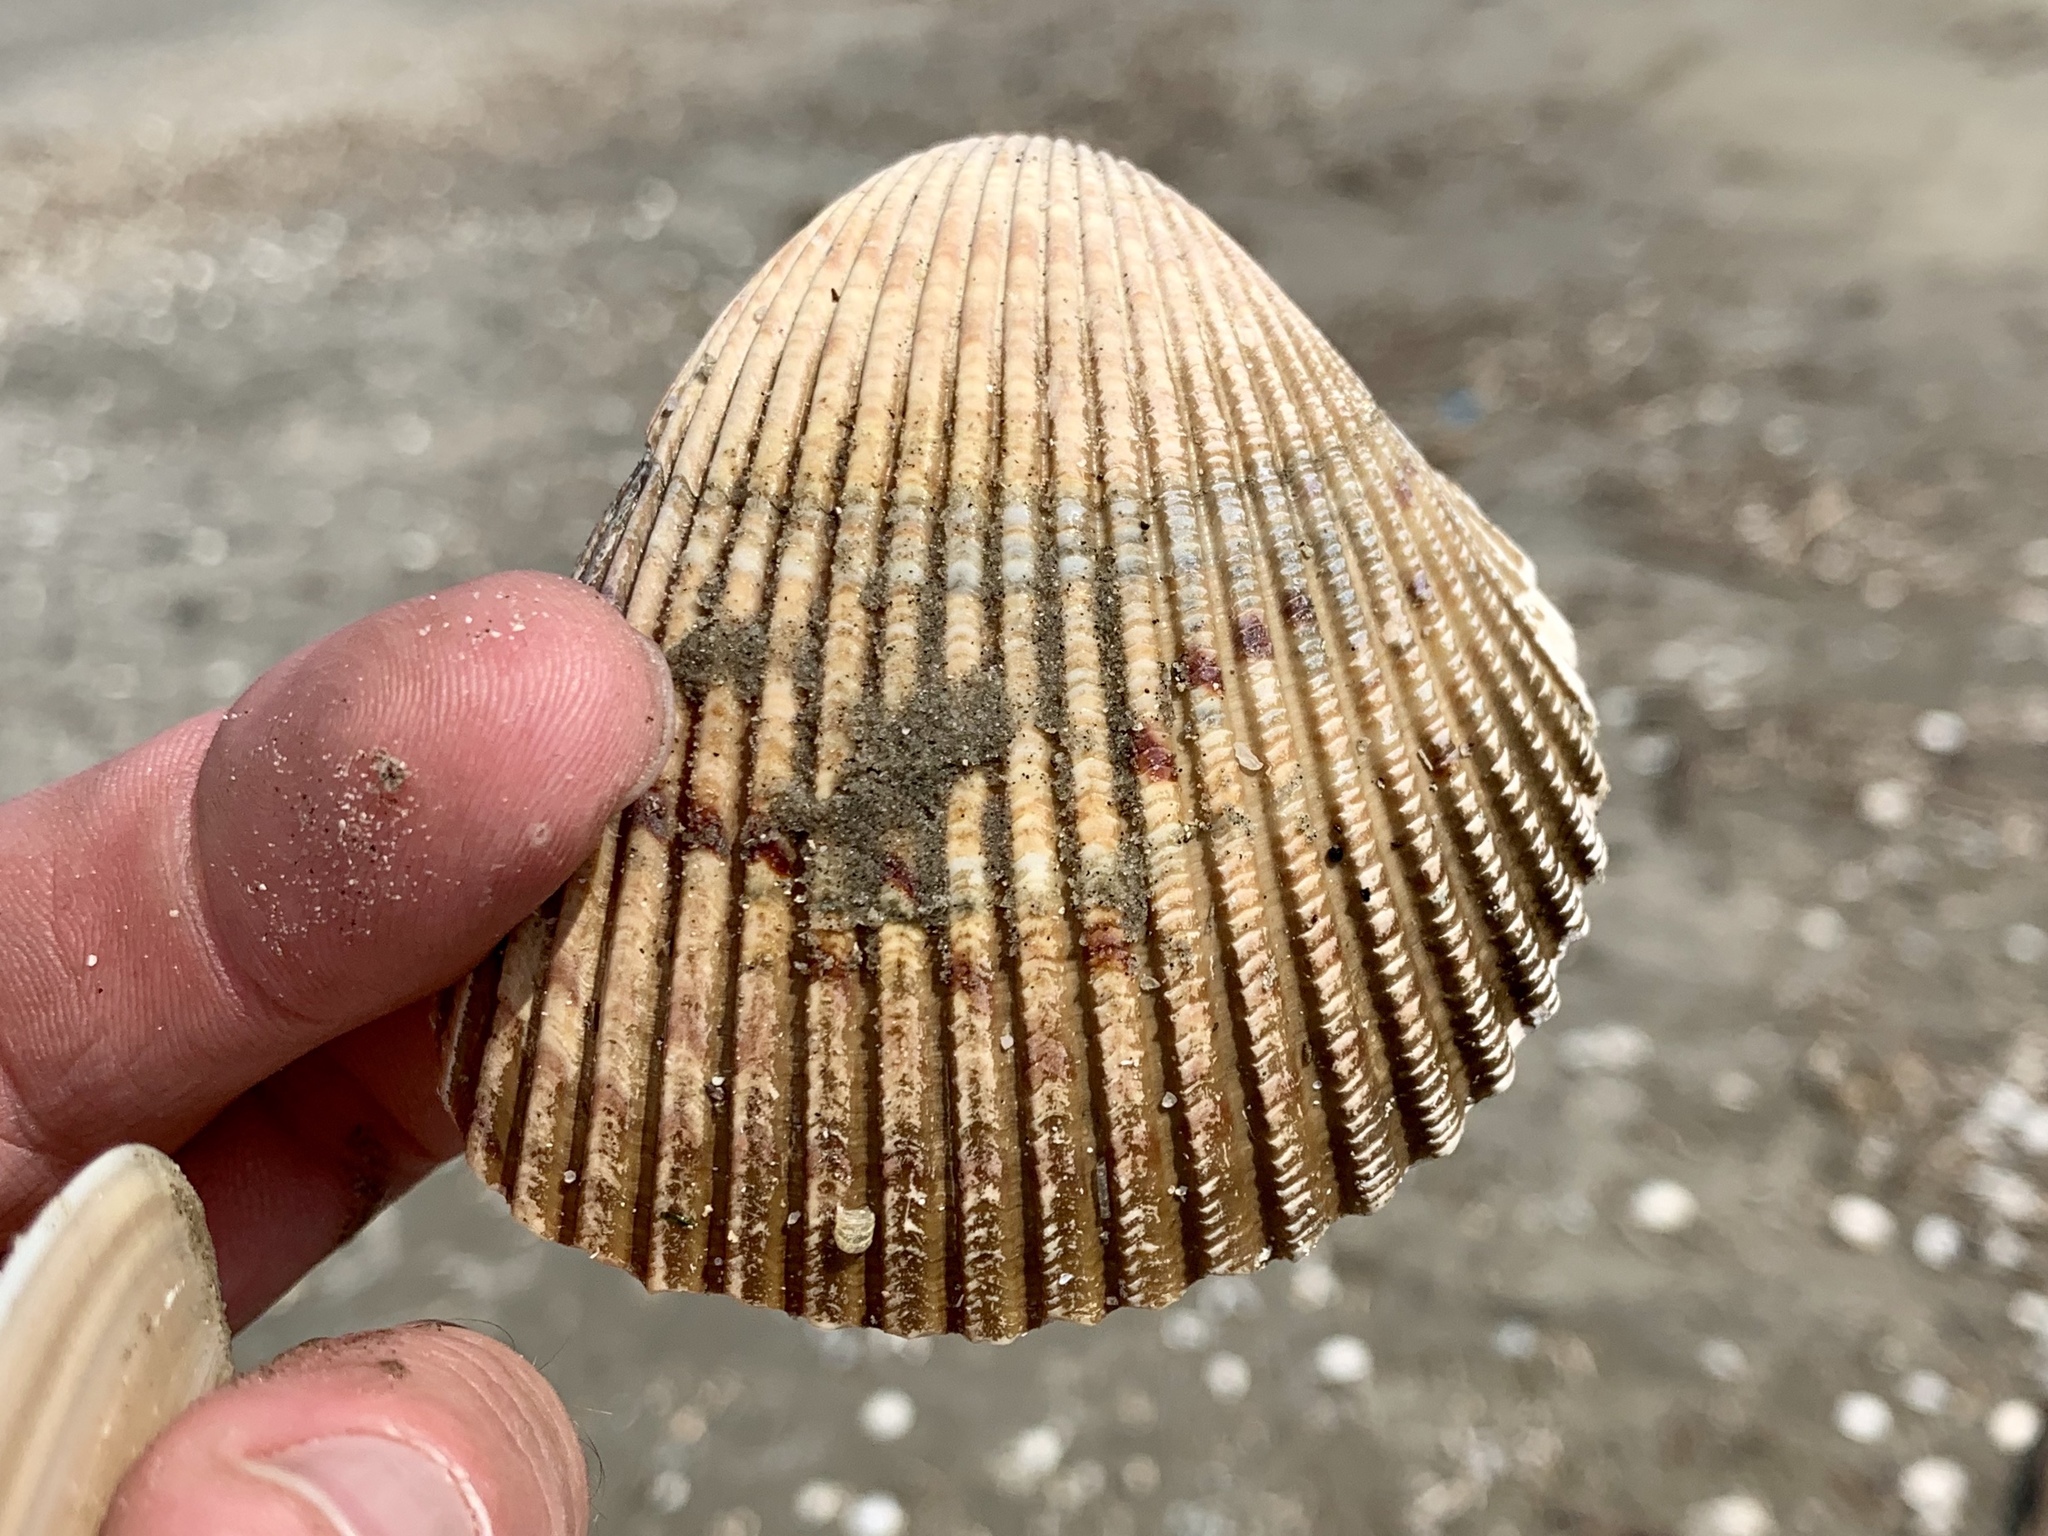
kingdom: Animalia
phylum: Mollusca
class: Bivalvia
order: Cardiida
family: Cardiidae
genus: Dinocardium
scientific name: Dinocardium robustum
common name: Atlantic giant cockle
